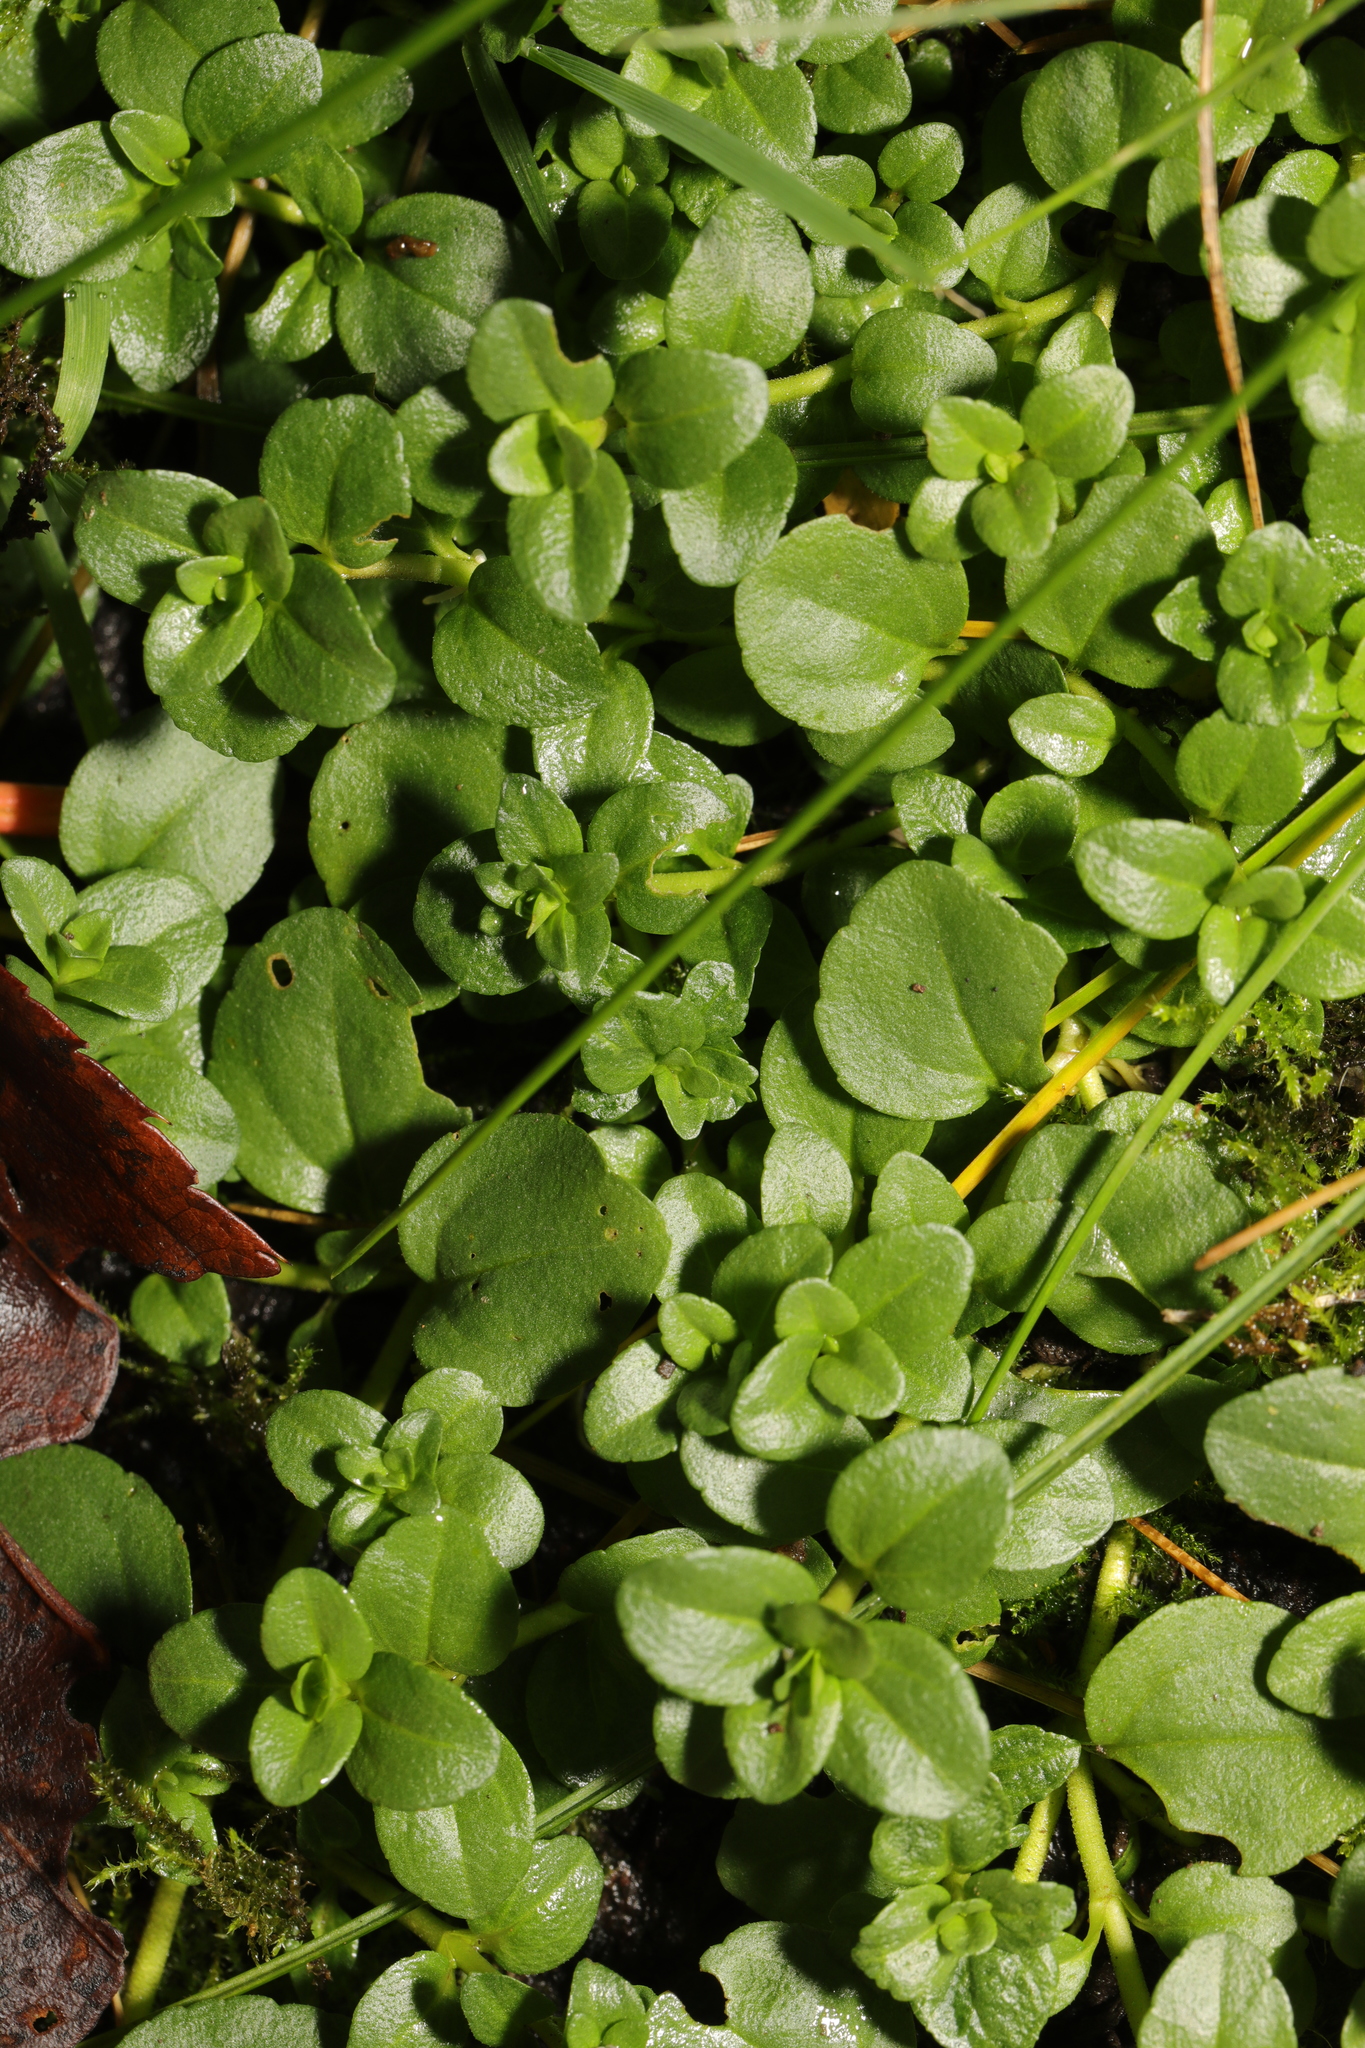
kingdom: Plantae
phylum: Tracheophyta
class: Magnoliopsida
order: Lamiales
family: Plantaginaceae
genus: Veronica
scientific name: Veronica serpyllifolia
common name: Thyme-leaved speedwell
